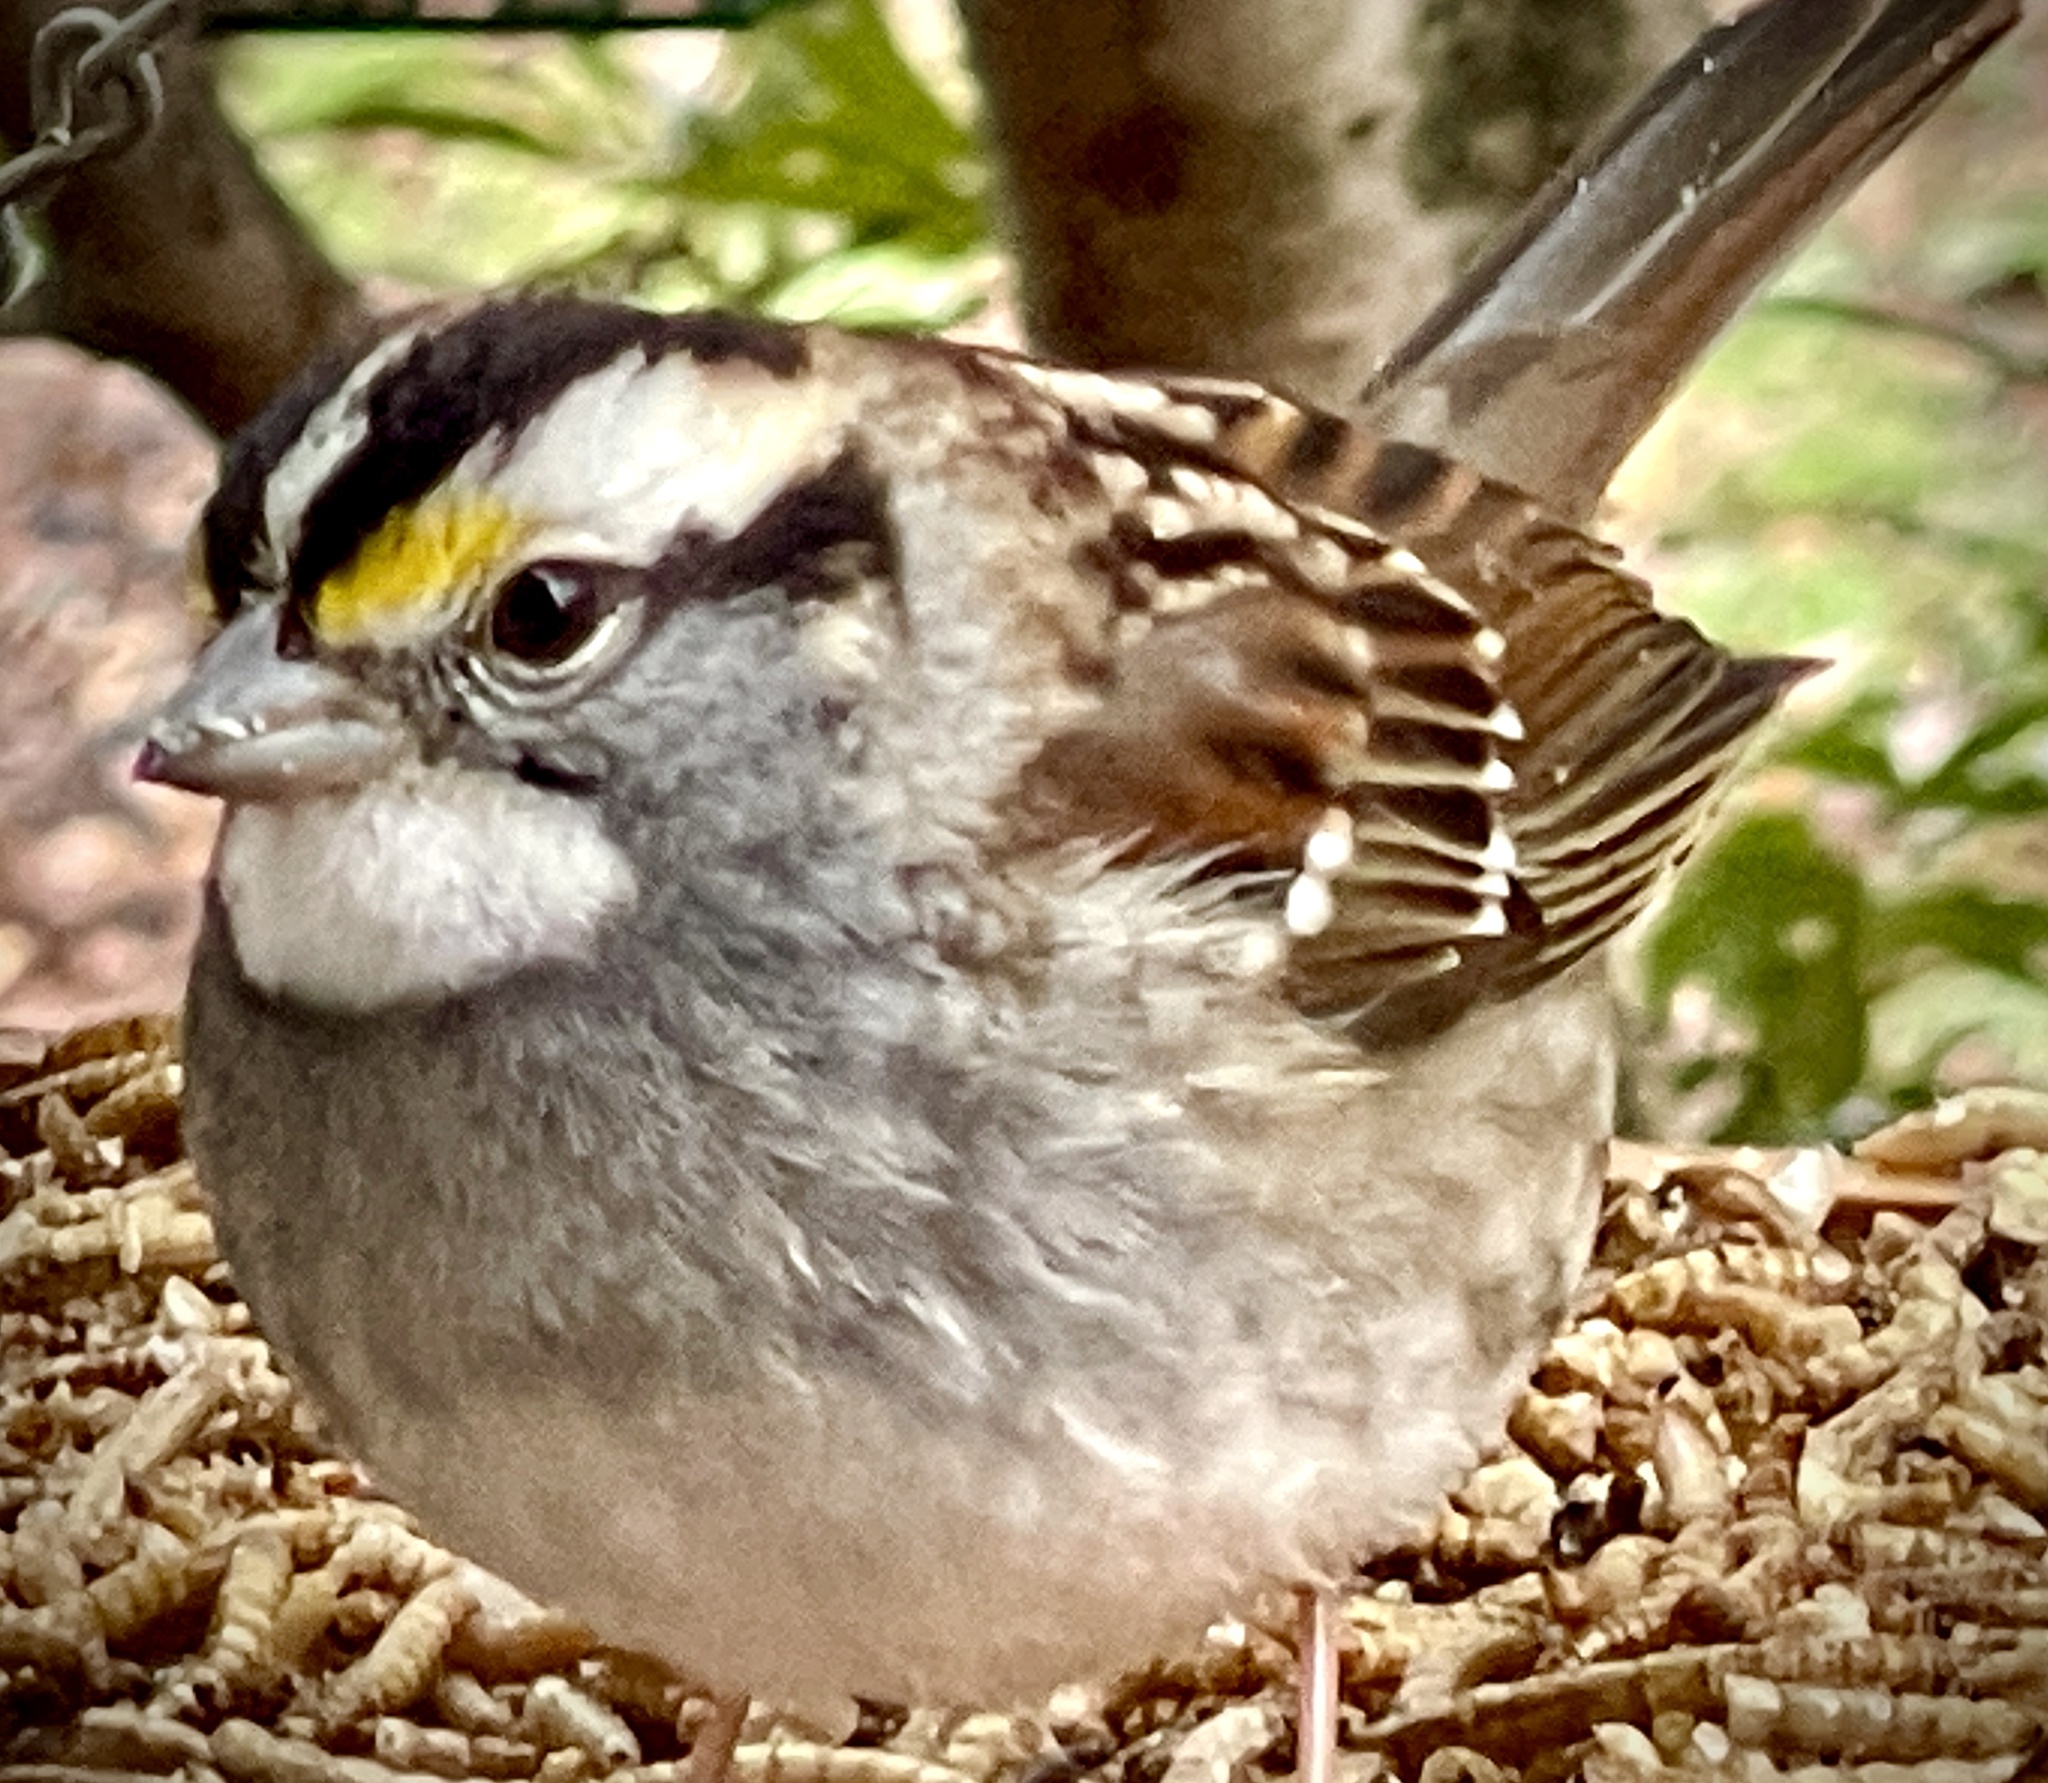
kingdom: Animalia
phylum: Chordata
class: Aves
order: Passeriformes
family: Passerellidae
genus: Zonotrichia
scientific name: Zonotrichia albicollis
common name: White-throated sparrow
